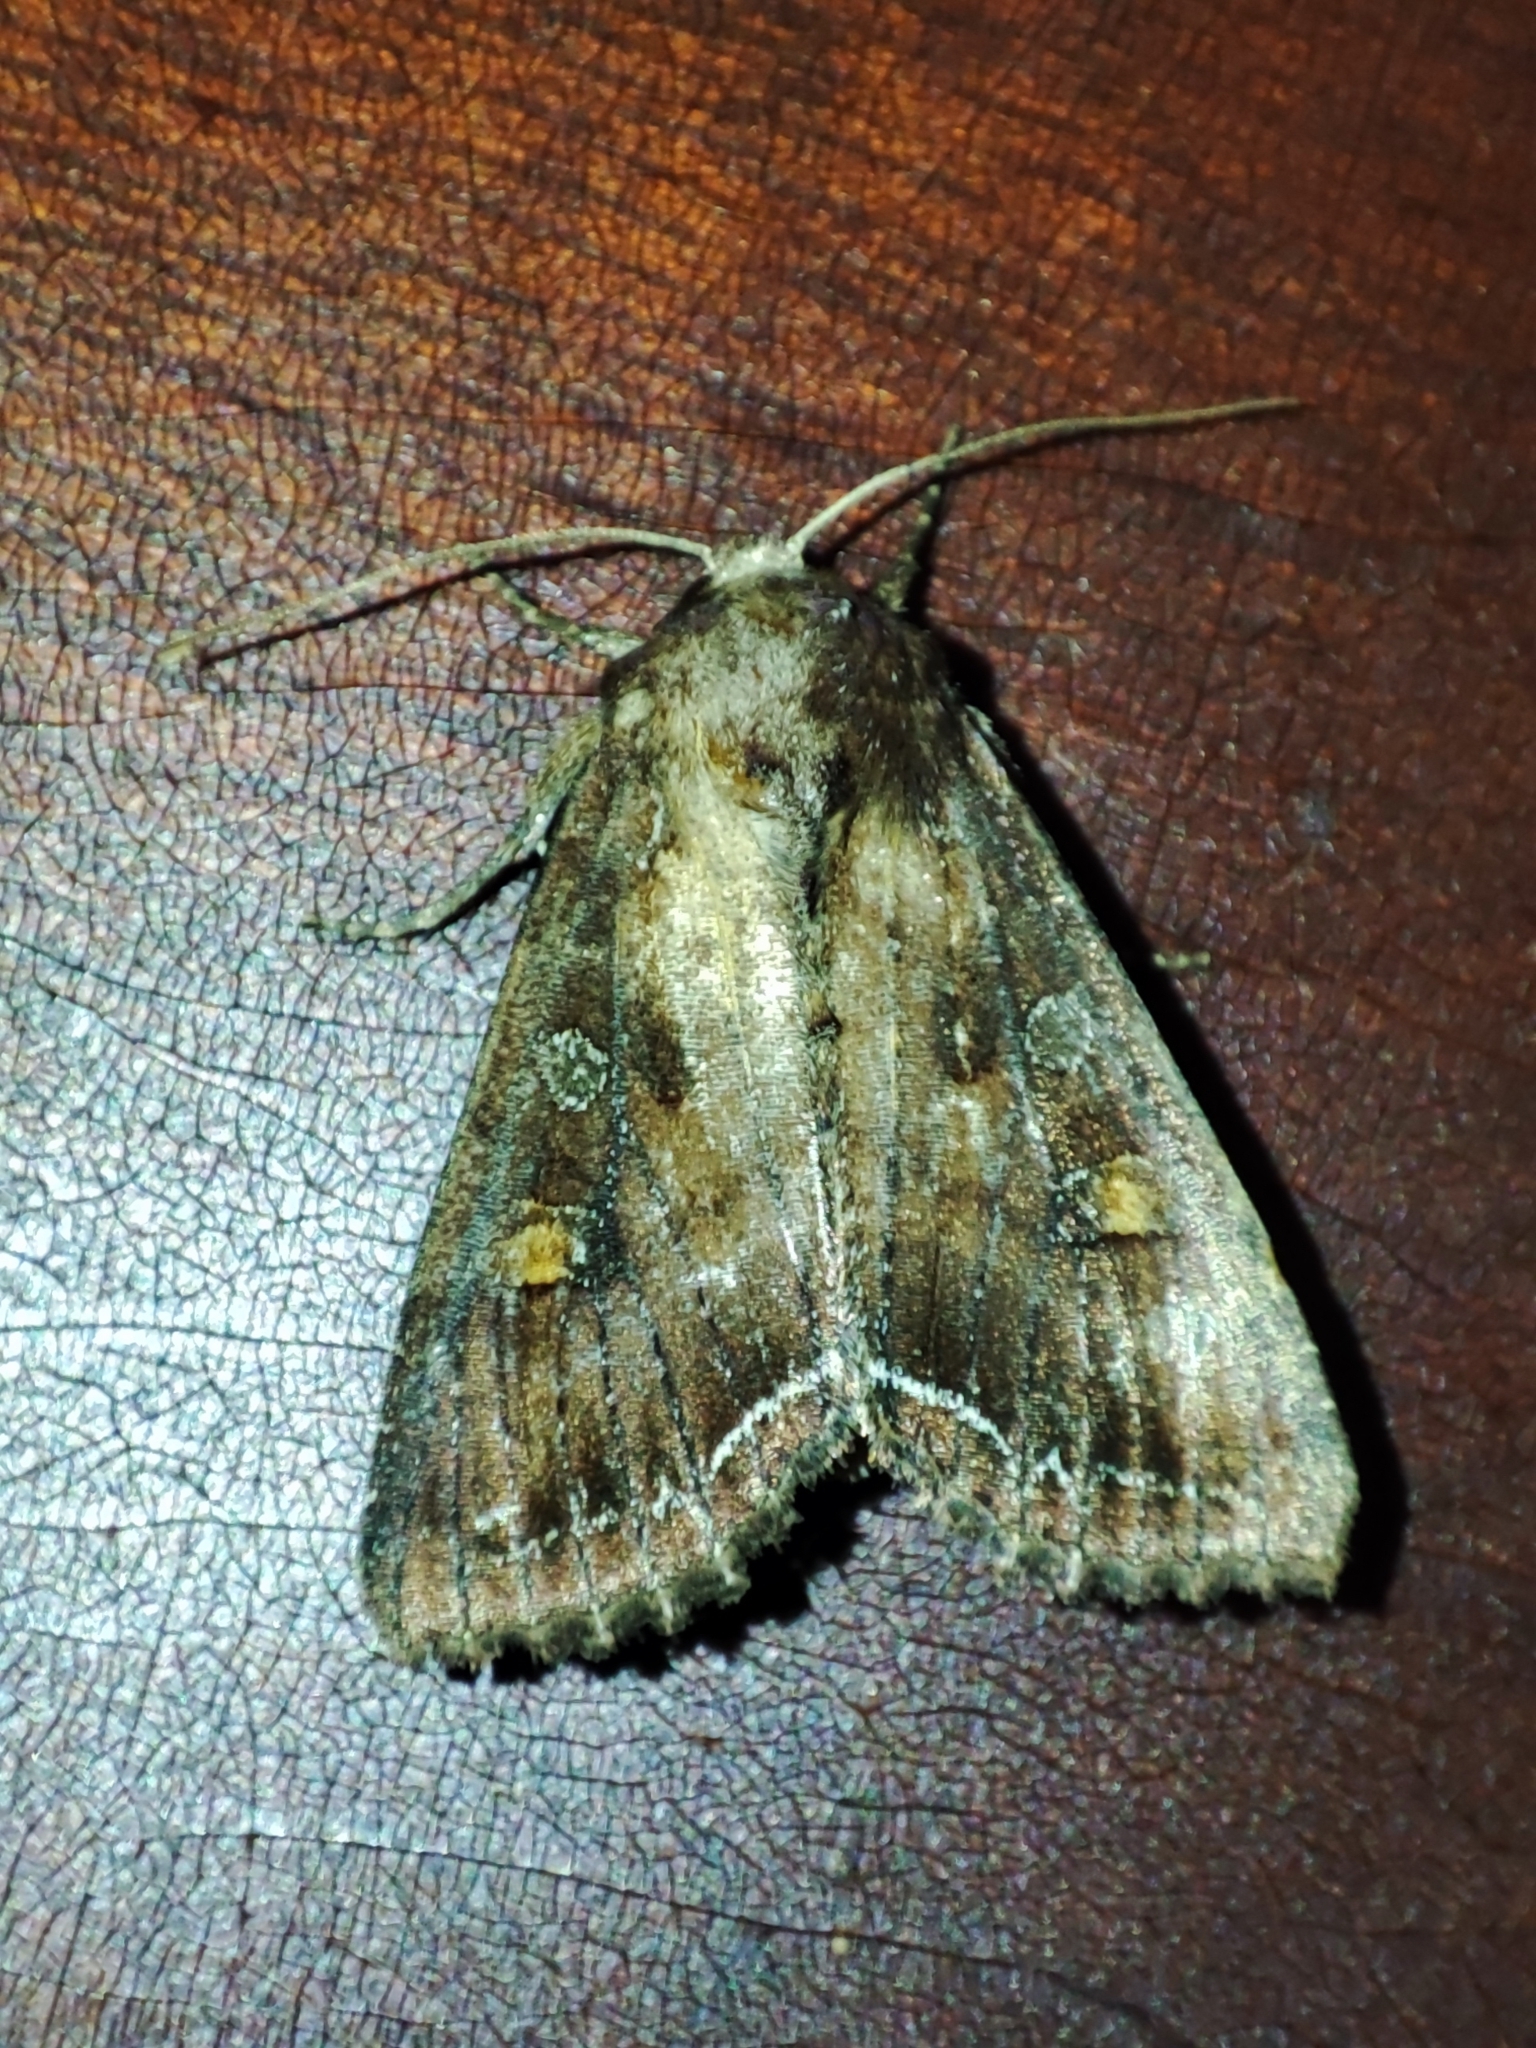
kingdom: Animalia
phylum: Arthropoda
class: Insecta
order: Lepidoptera
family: Noctuidae
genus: Lacanobia
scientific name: Lacanobia oleracea
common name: Bright-line brown-eye
